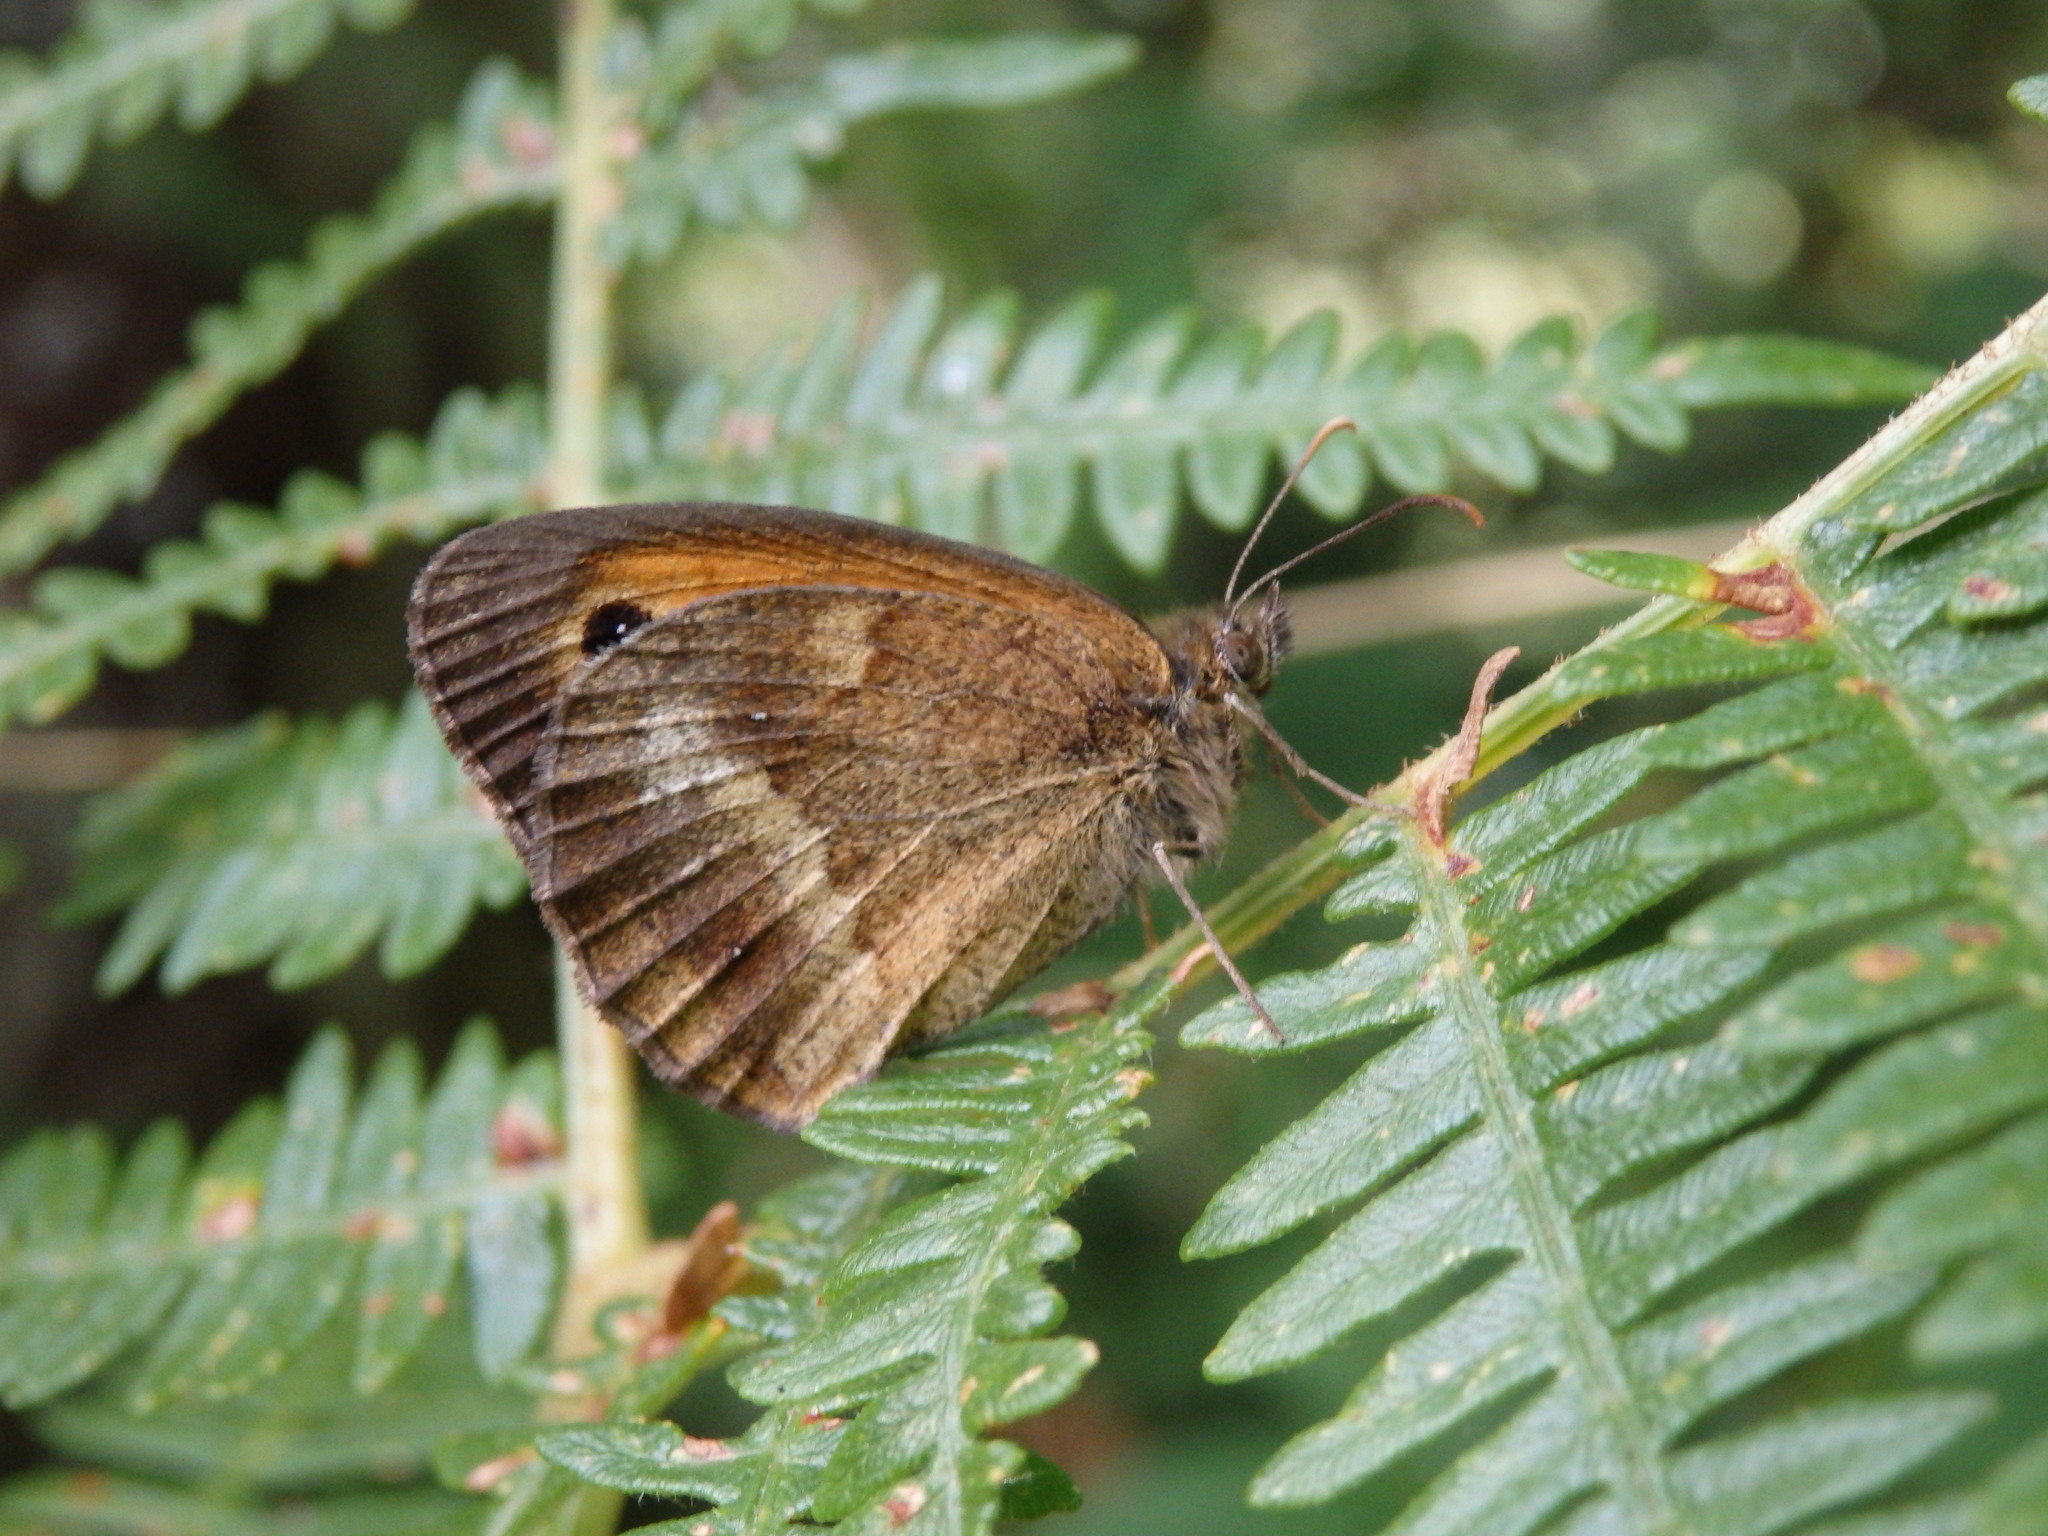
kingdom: Animalia
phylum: Arthropoda
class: Insecta
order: Lepidoptera
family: Nymphalidae
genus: Pyronia
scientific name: Pyronia tithonus
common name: Gatekeeper
